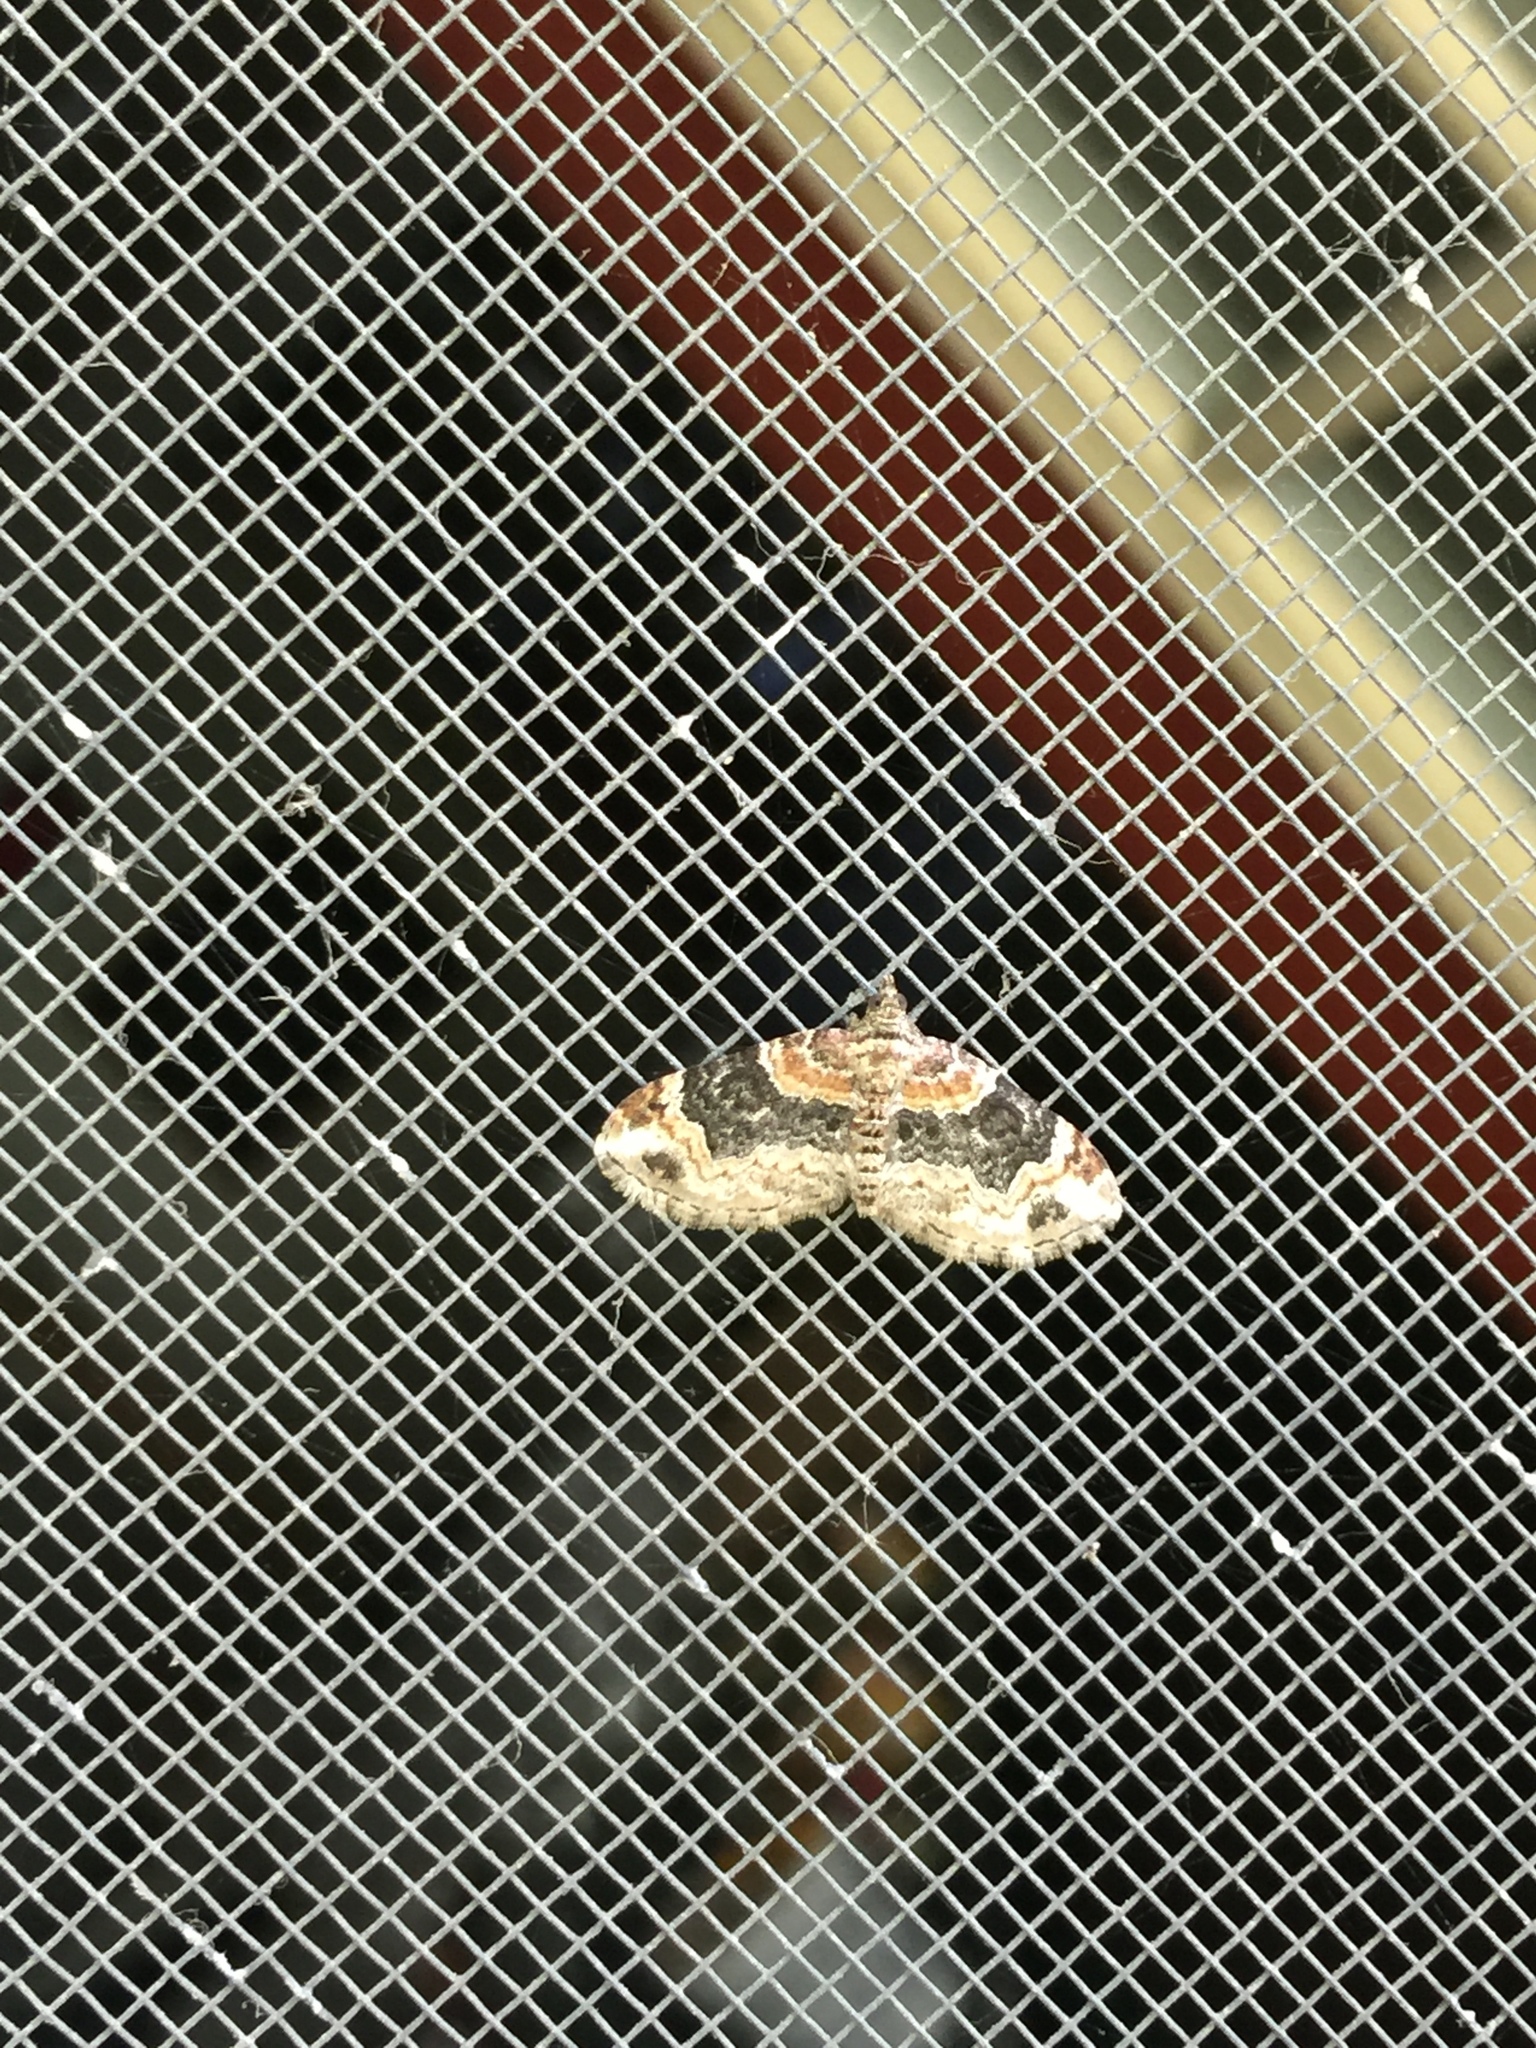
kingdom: Animalia
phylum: Arthropoda
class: Insecta
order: Lepidoptera
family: Geometridae
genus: Xanthorhoe
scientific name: Xanthorhoe ferrugata
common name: Dark-barred twin-spot carpet
